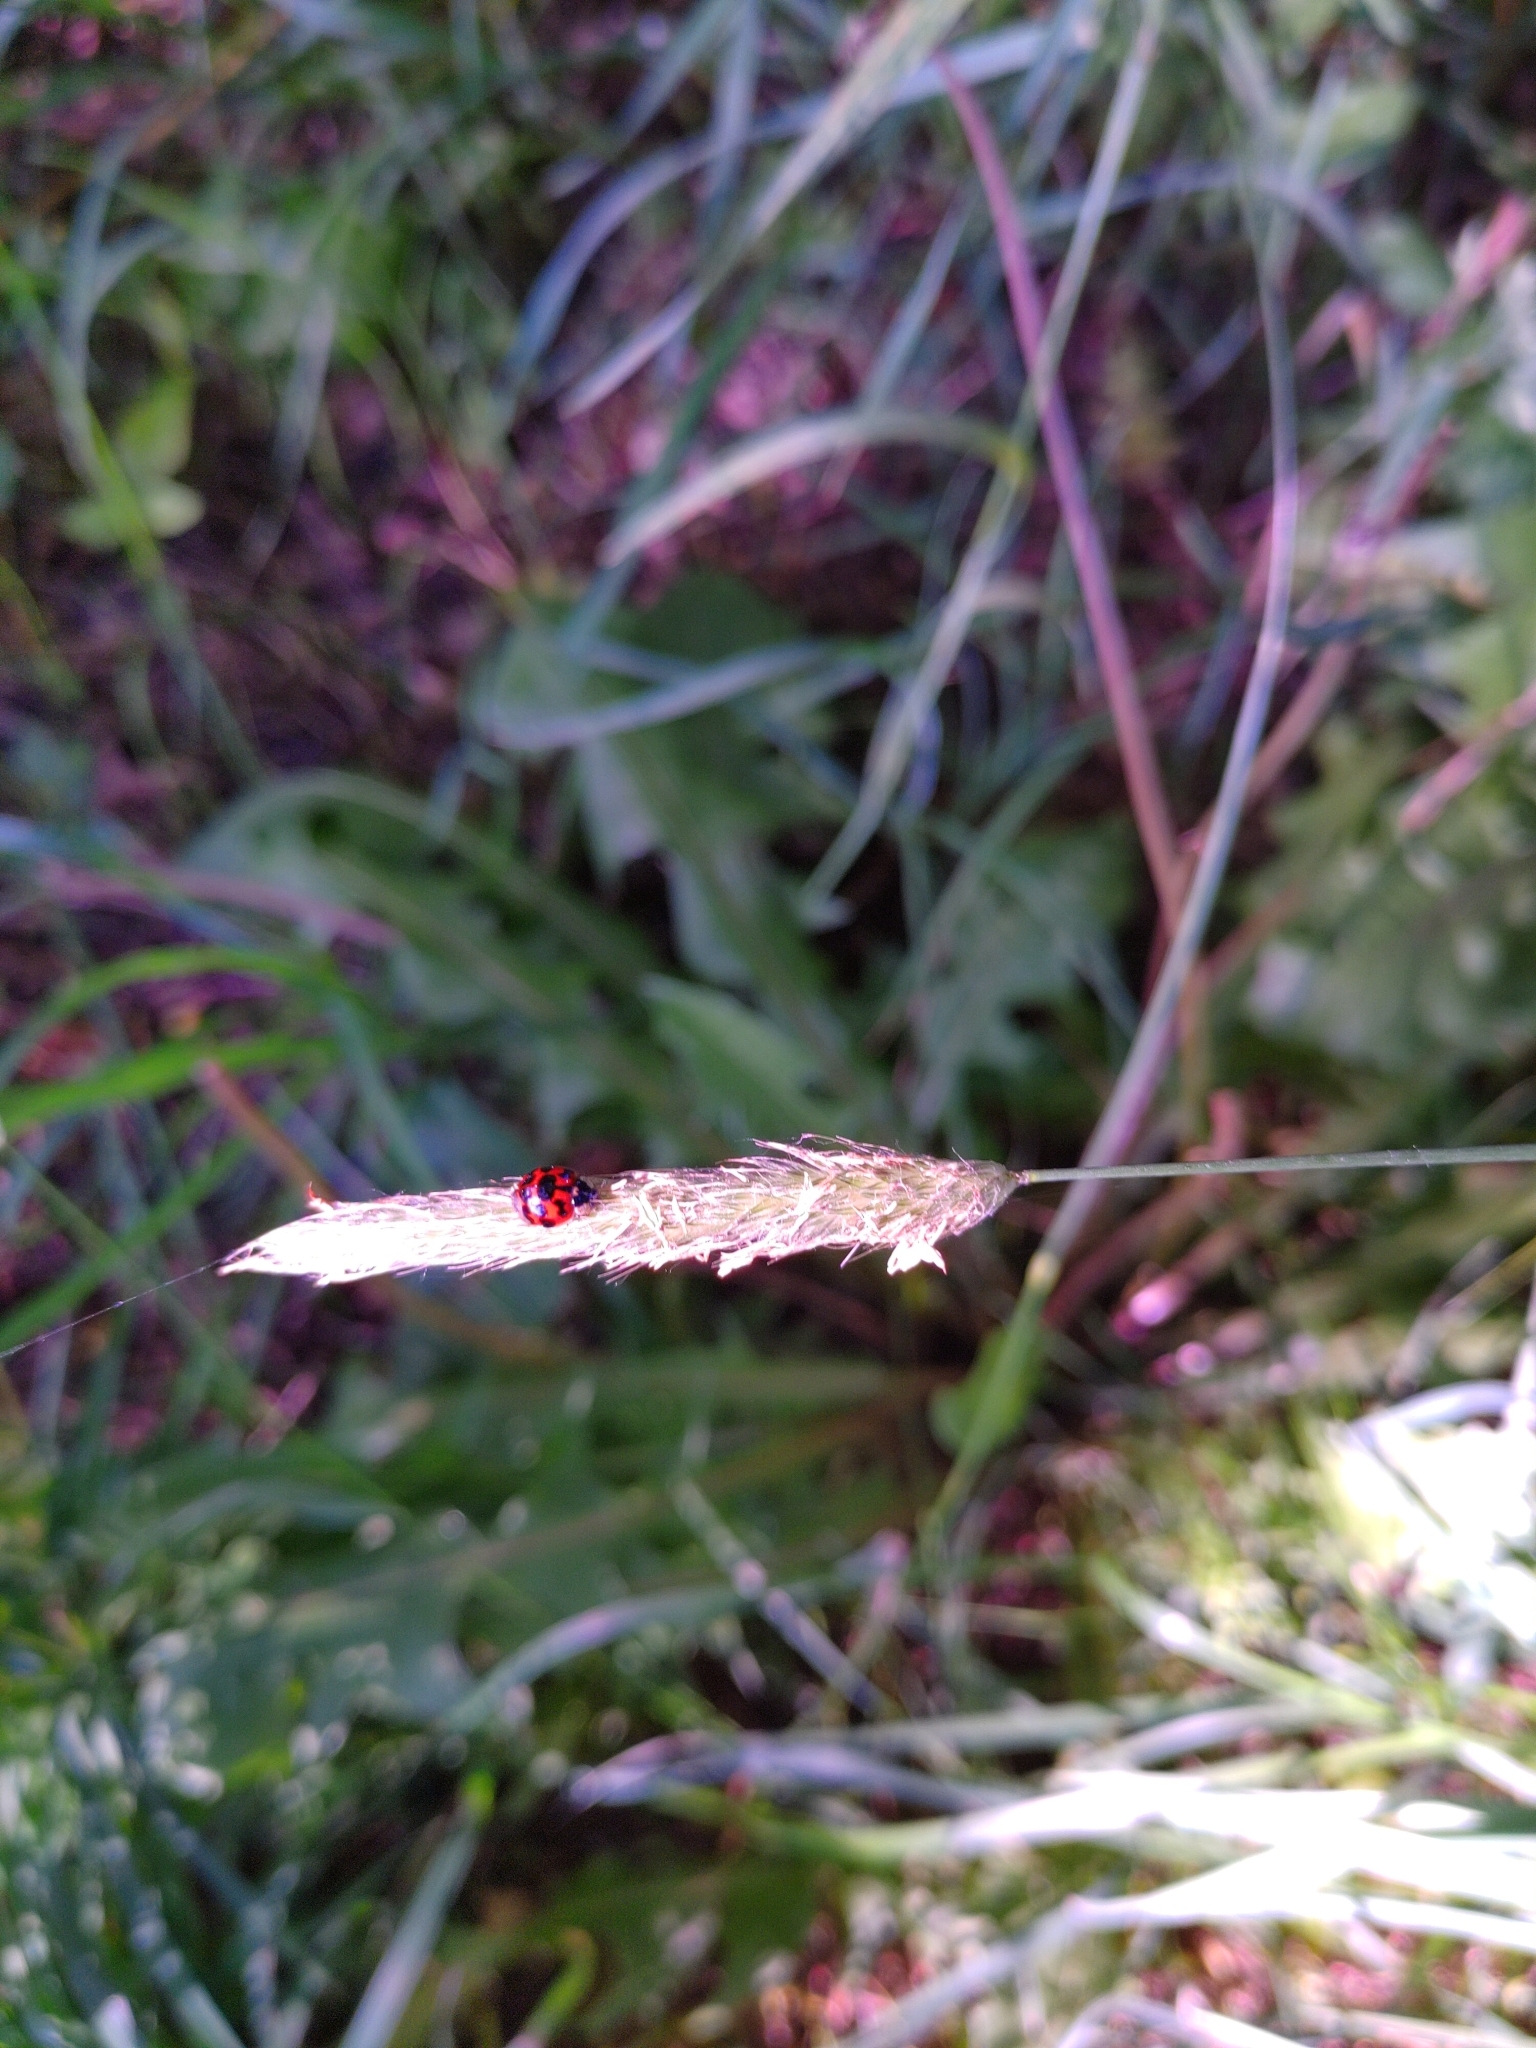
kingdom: Animalia
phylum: Arthropoda
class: Insecta
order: Coleoptera
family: Coccinellidae
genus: Harmonia
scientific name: Harmonia axyridis
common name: Harlequin ladybird
